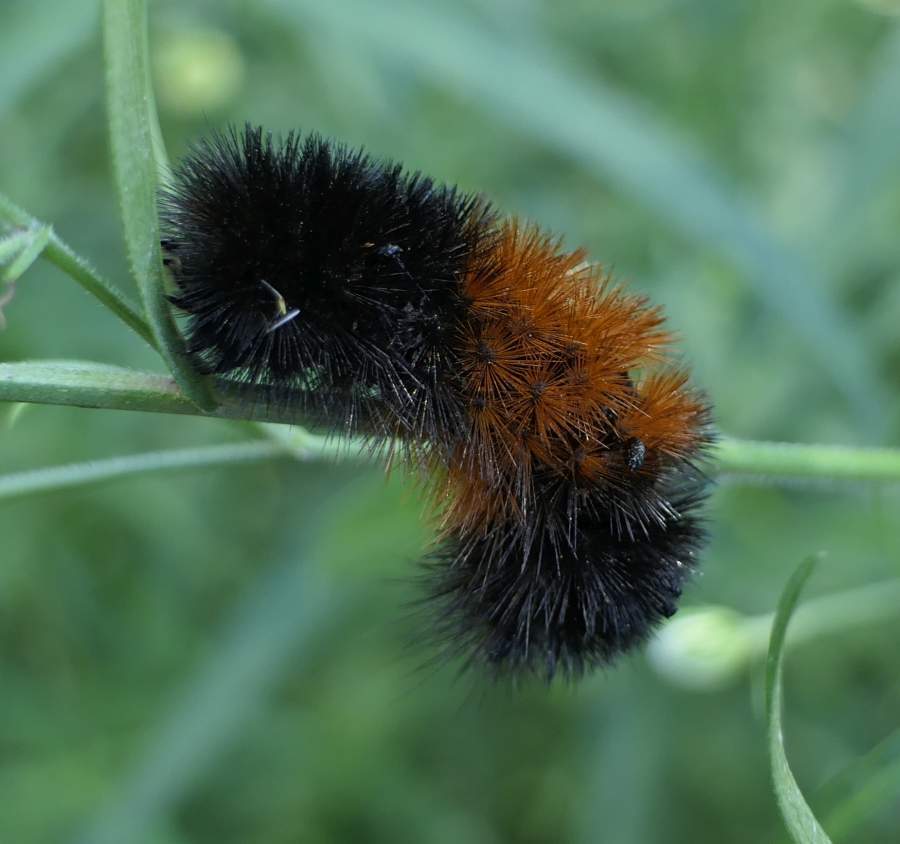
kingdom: Animalia
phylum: Arthropoda
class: Insecta
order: Lepidoptera
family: Erebidae
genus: Pyrrharctia
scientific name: Pyrrharctia isabella
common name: Isabella tiger moth
